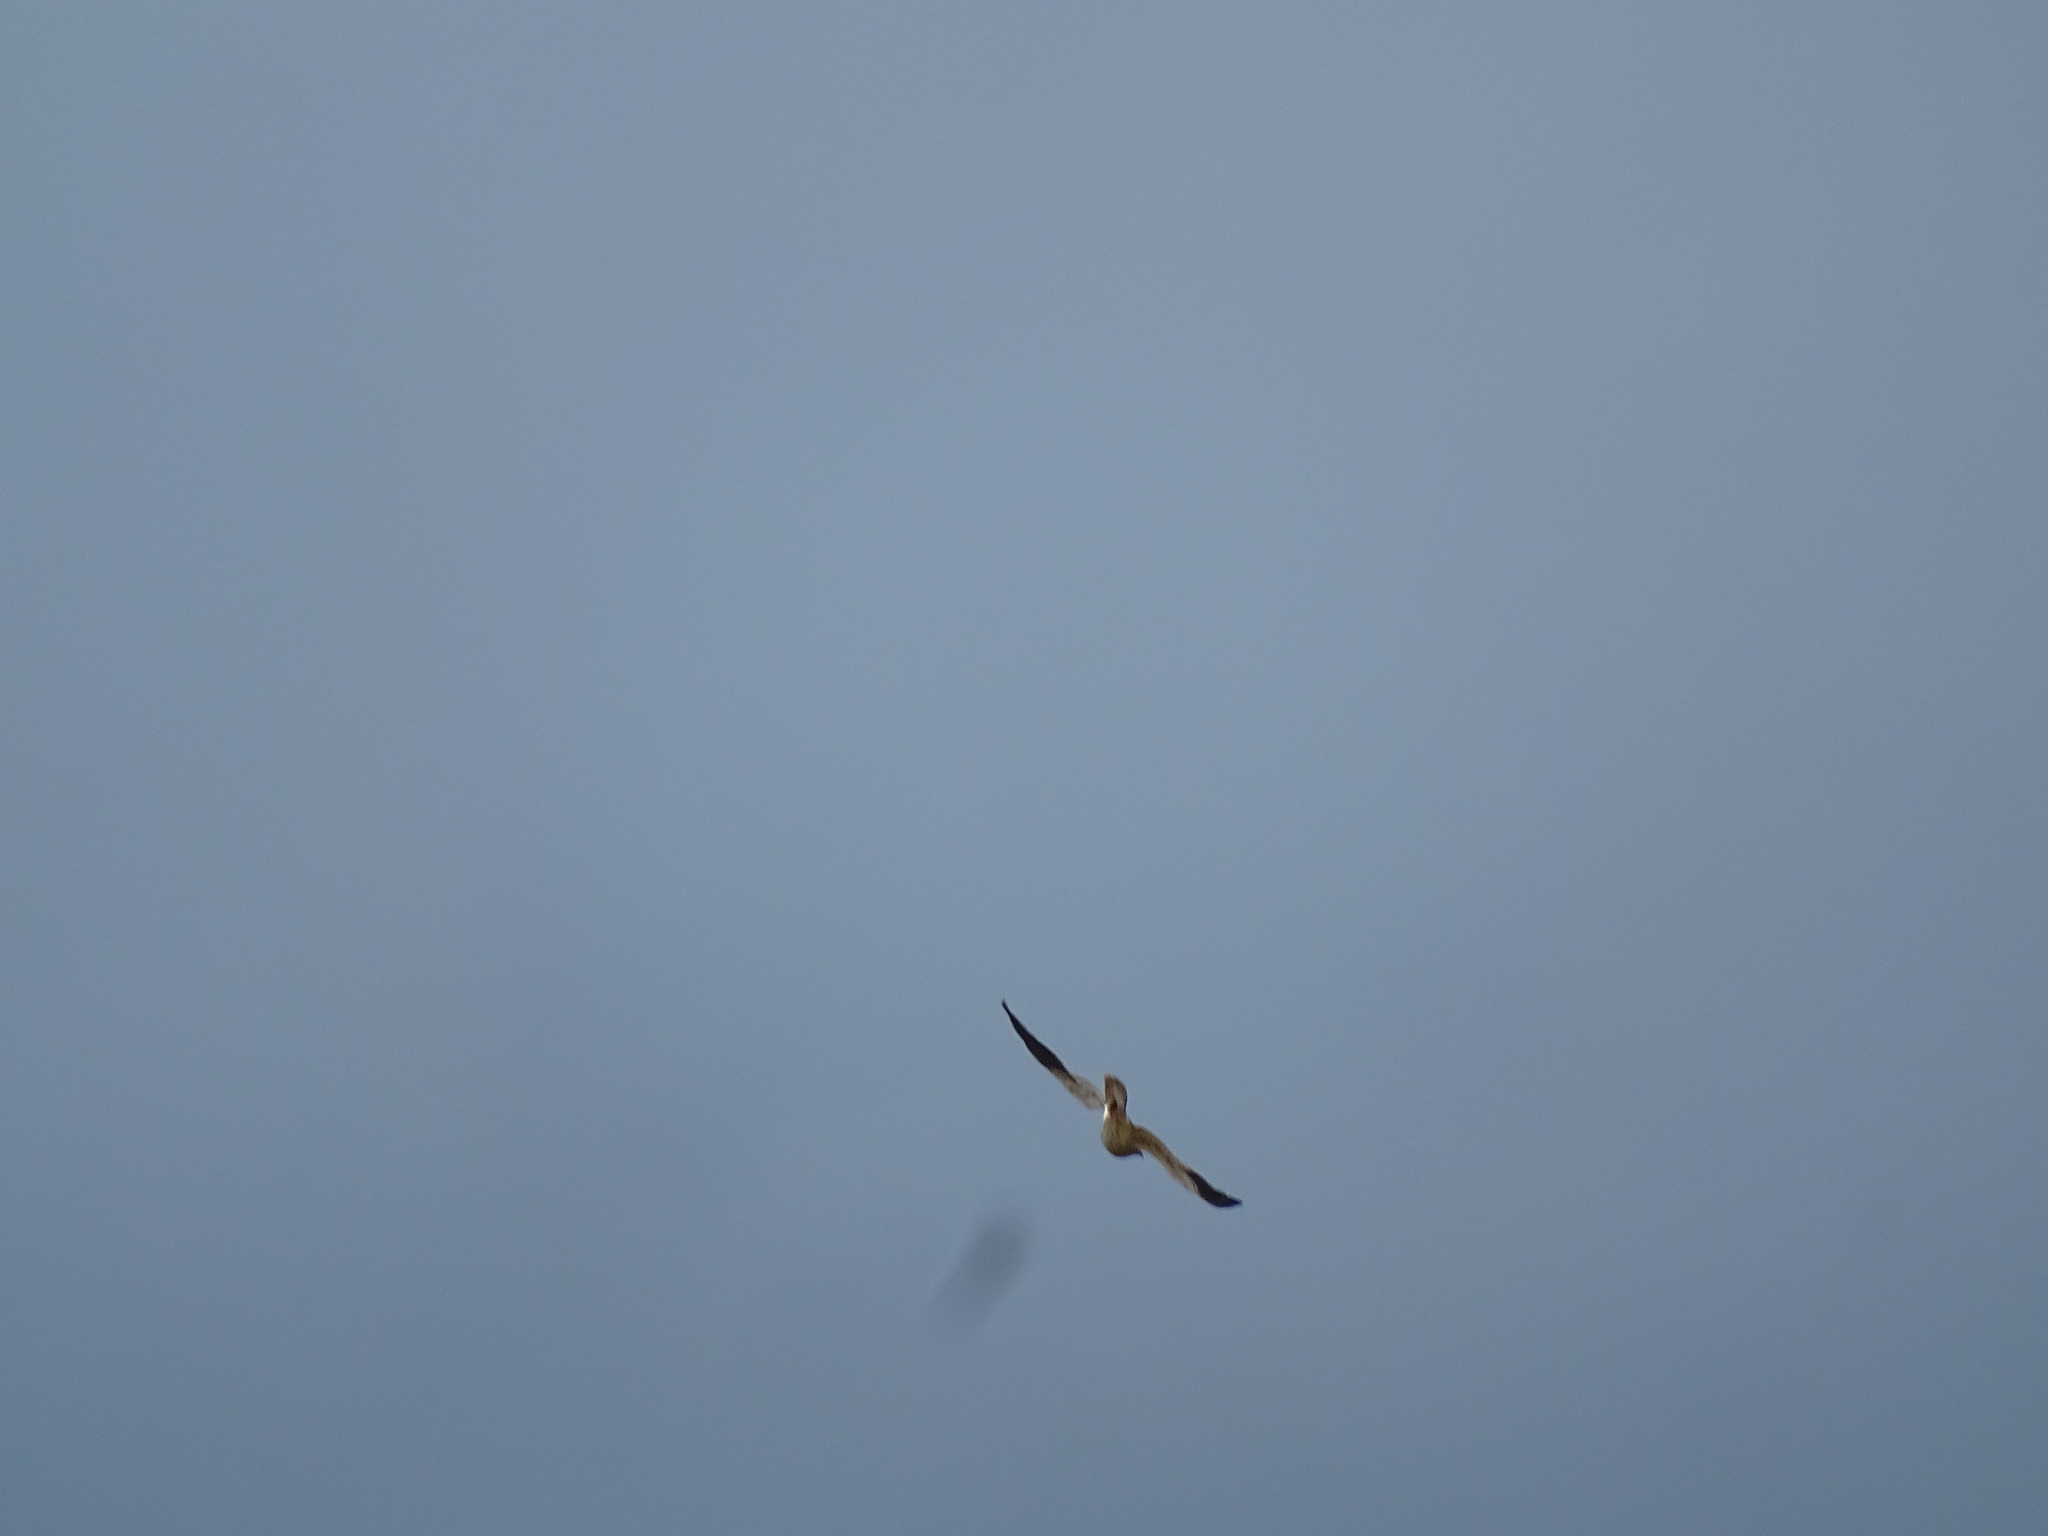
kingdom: Animalia
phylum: Chordata
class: Aves
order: Accipitriformes
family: Accipitridae
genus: Circus
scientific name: Circus pygargus
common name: Montagu's harrier
